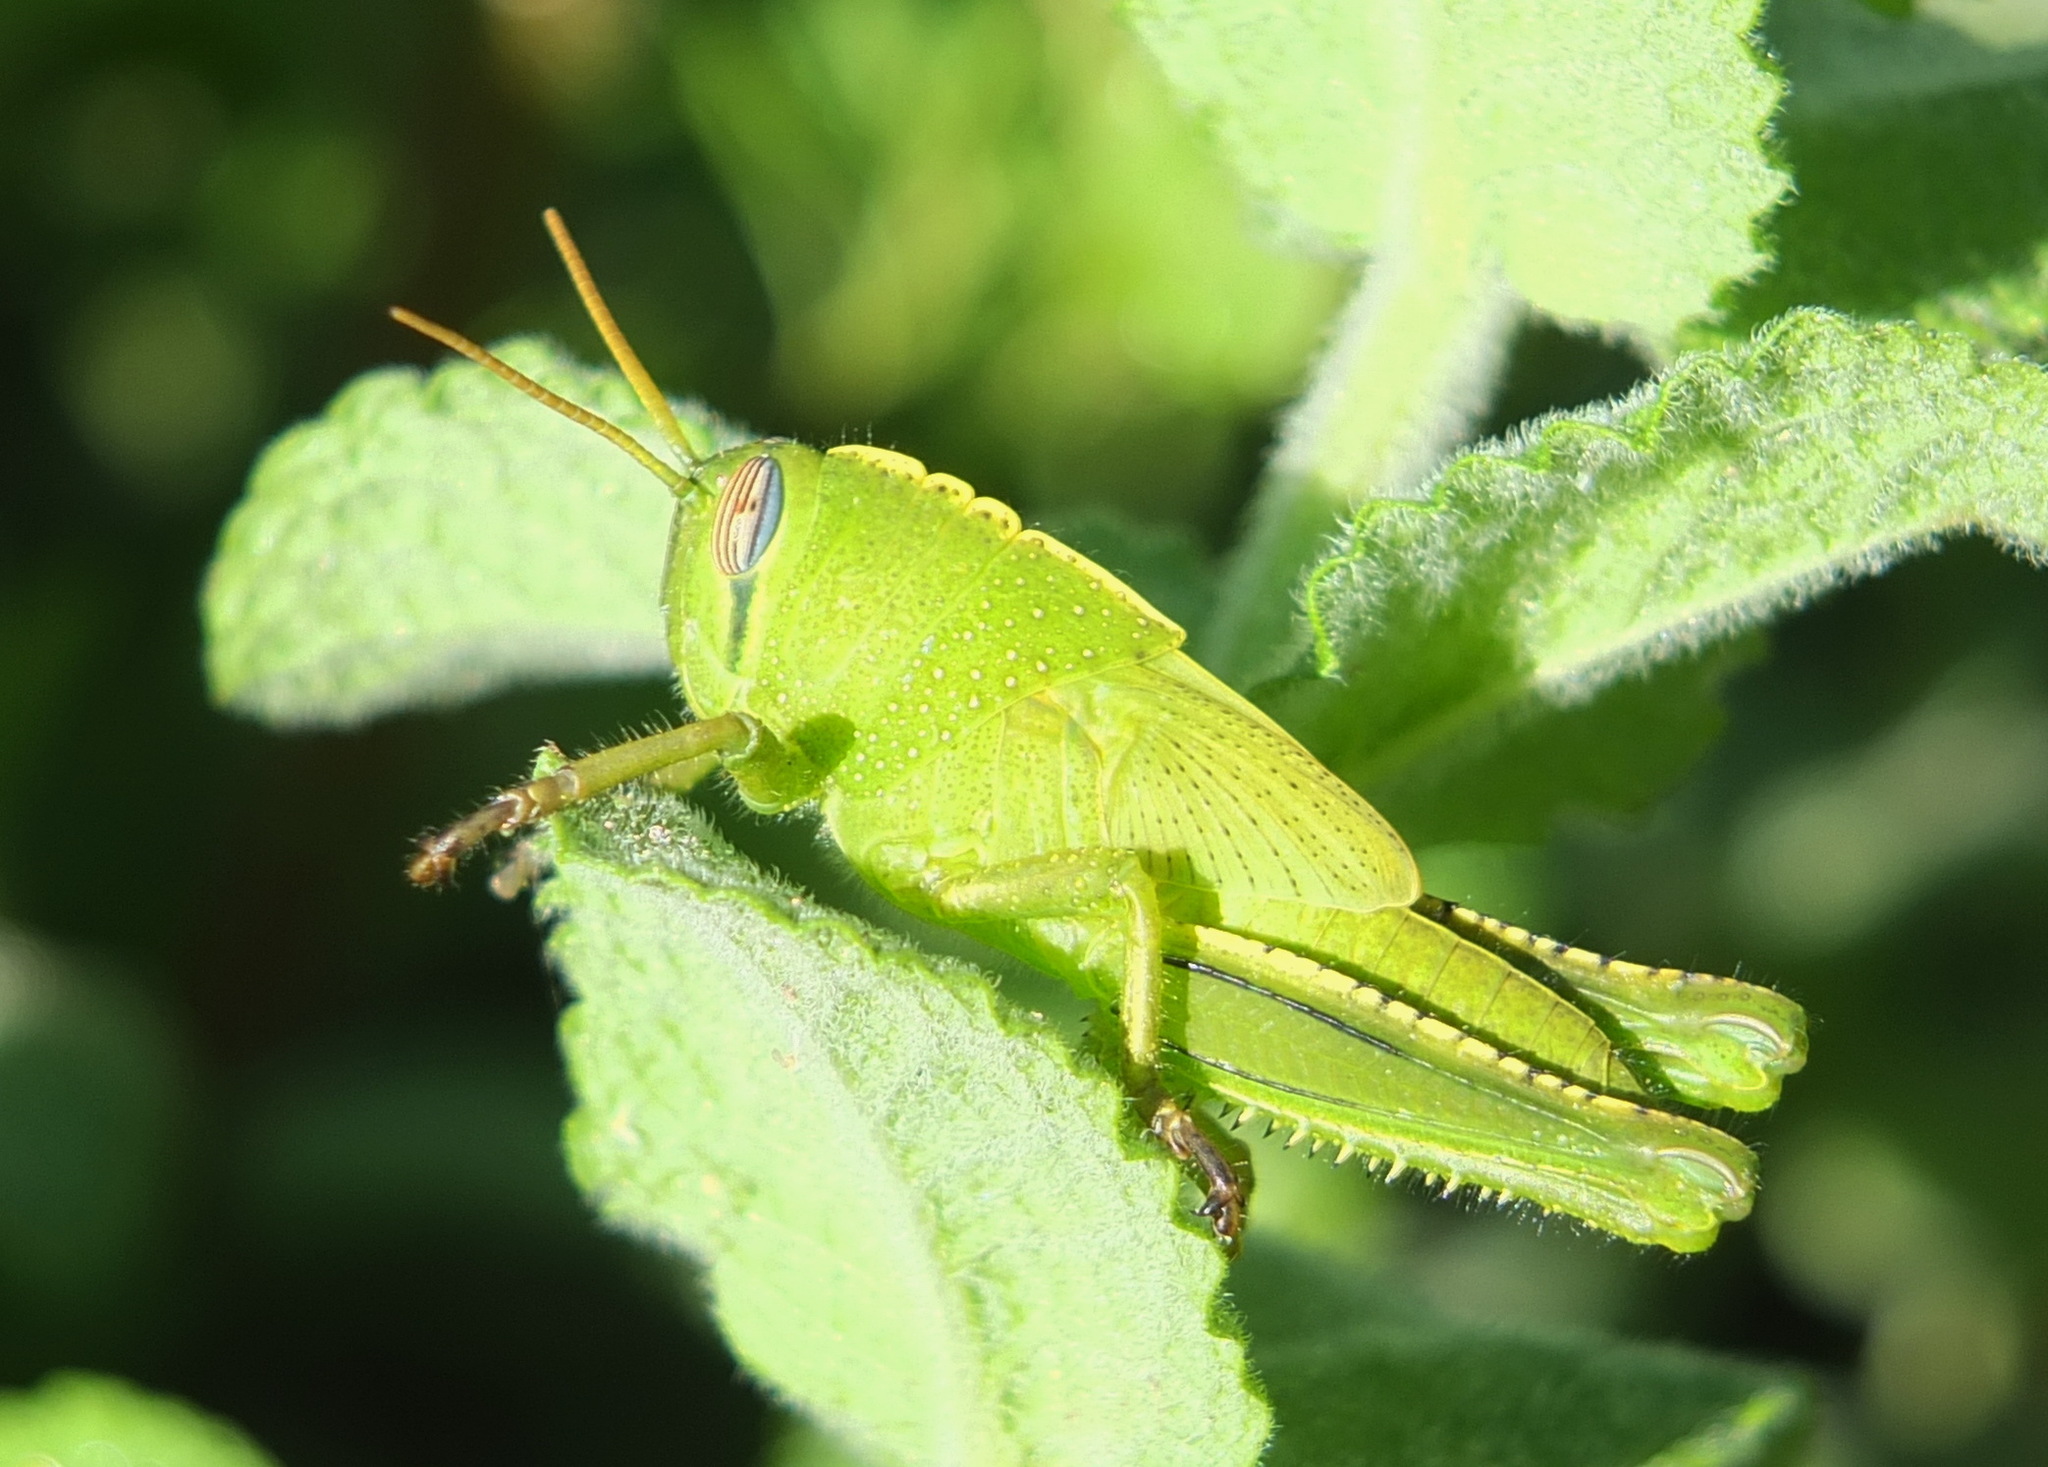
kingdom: Animalia
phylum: Arthropoda
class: Insecta
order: Orthoptera
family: Acrididae
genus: Anacridium
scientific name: Anacridium aegyptium
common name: Egyptian grasshopper
